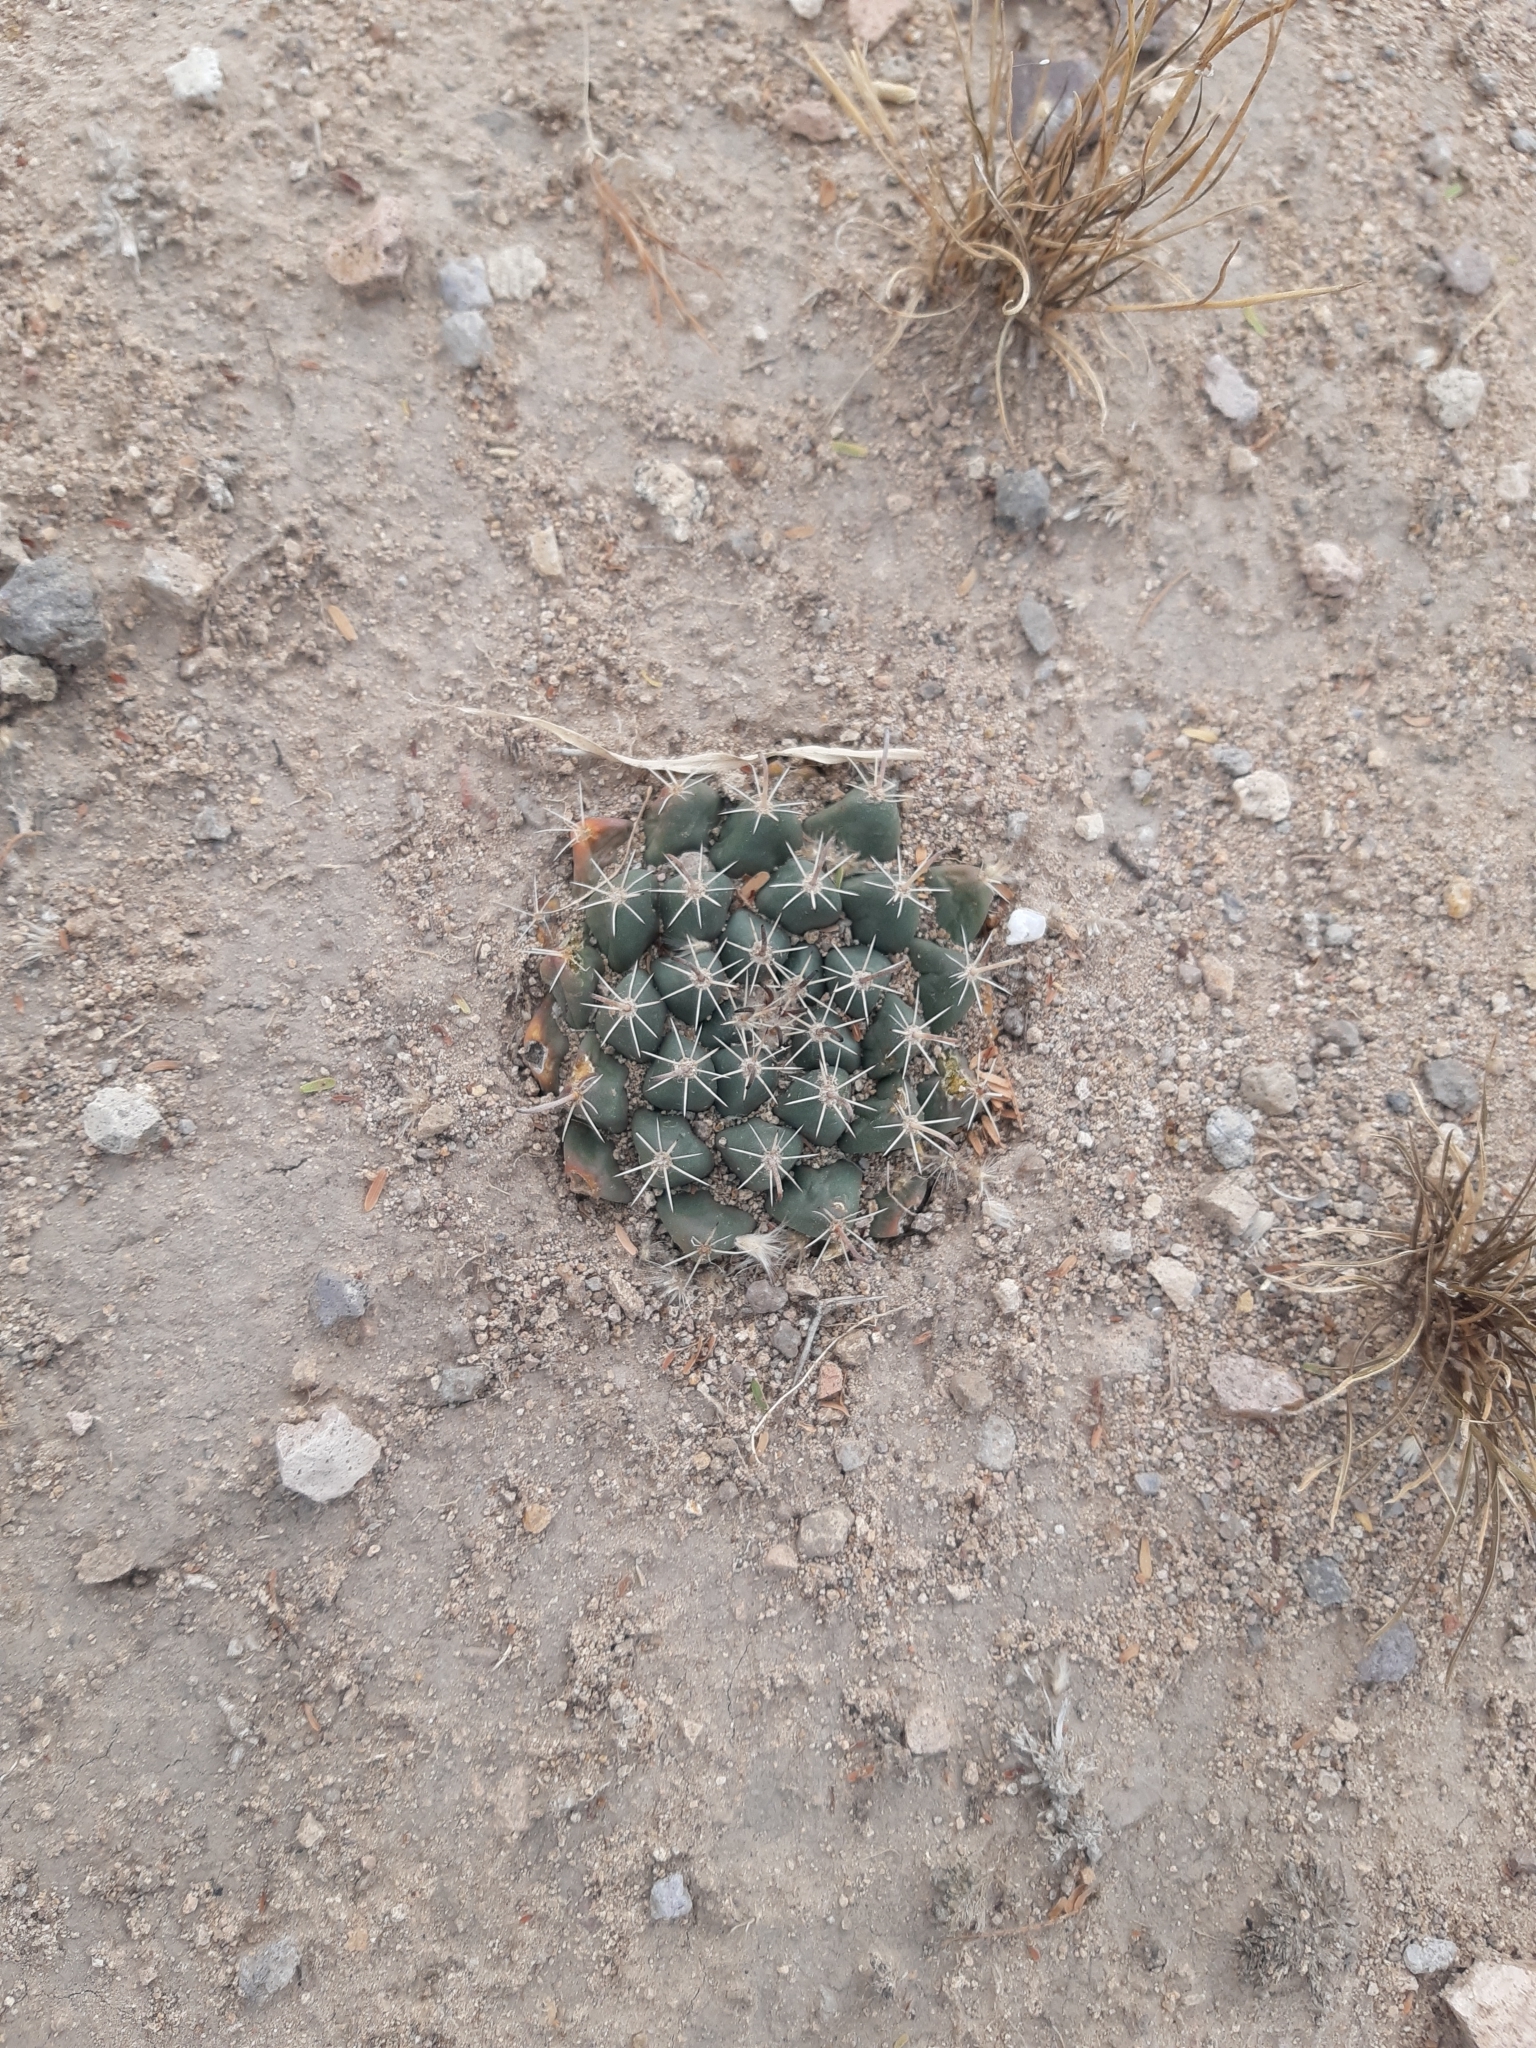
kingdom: Plantae
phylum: Tracheophyta
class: Magnoliopsida
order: Caryophyllales
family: Cactaceae
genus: Mammillaria
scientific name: Mammillaria uncinata
